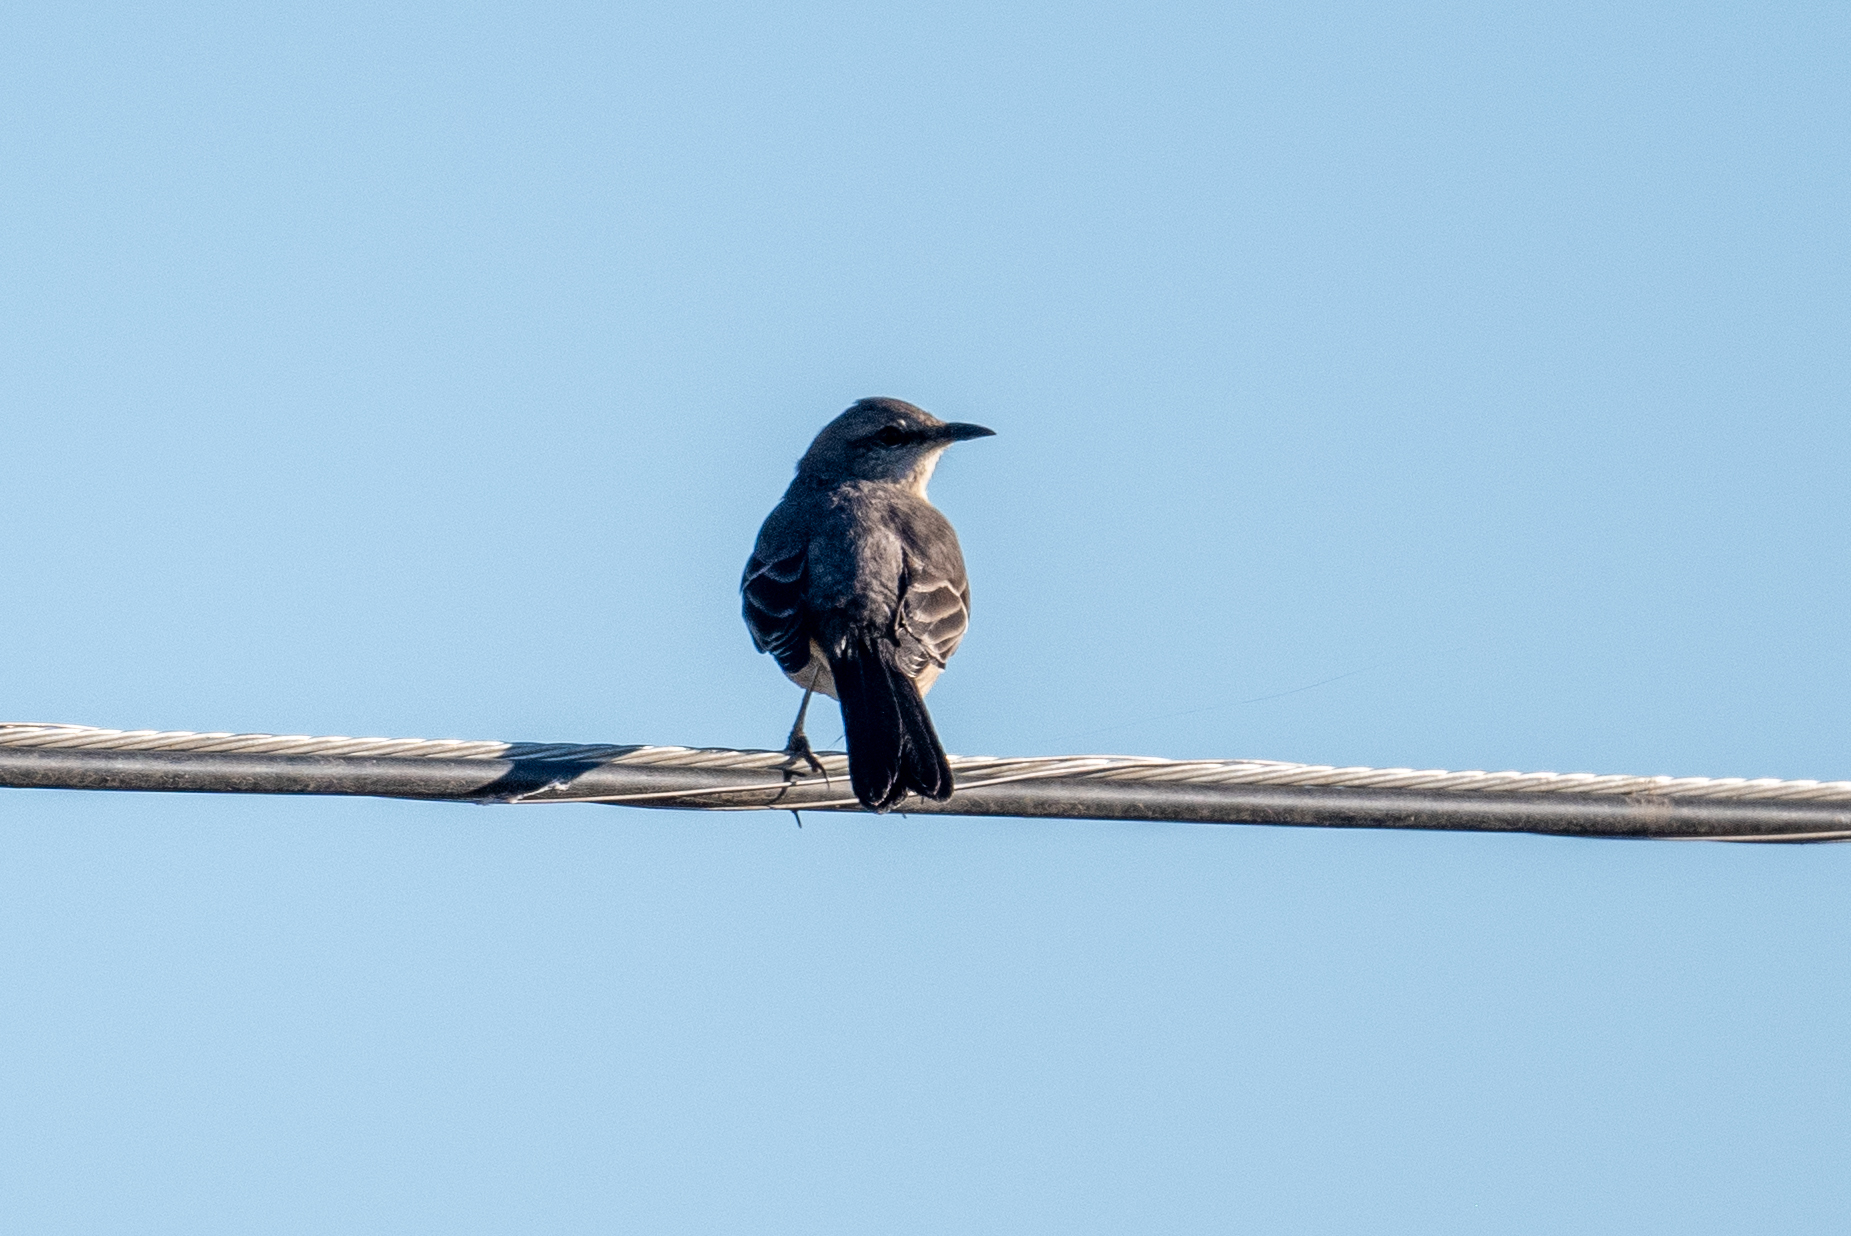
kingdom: Animalia
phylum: Chordata
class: Aves
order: Passeriformes
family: Mimidae
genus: Mimus
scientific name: Mimus polyglottos
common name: Northern mockingbird
